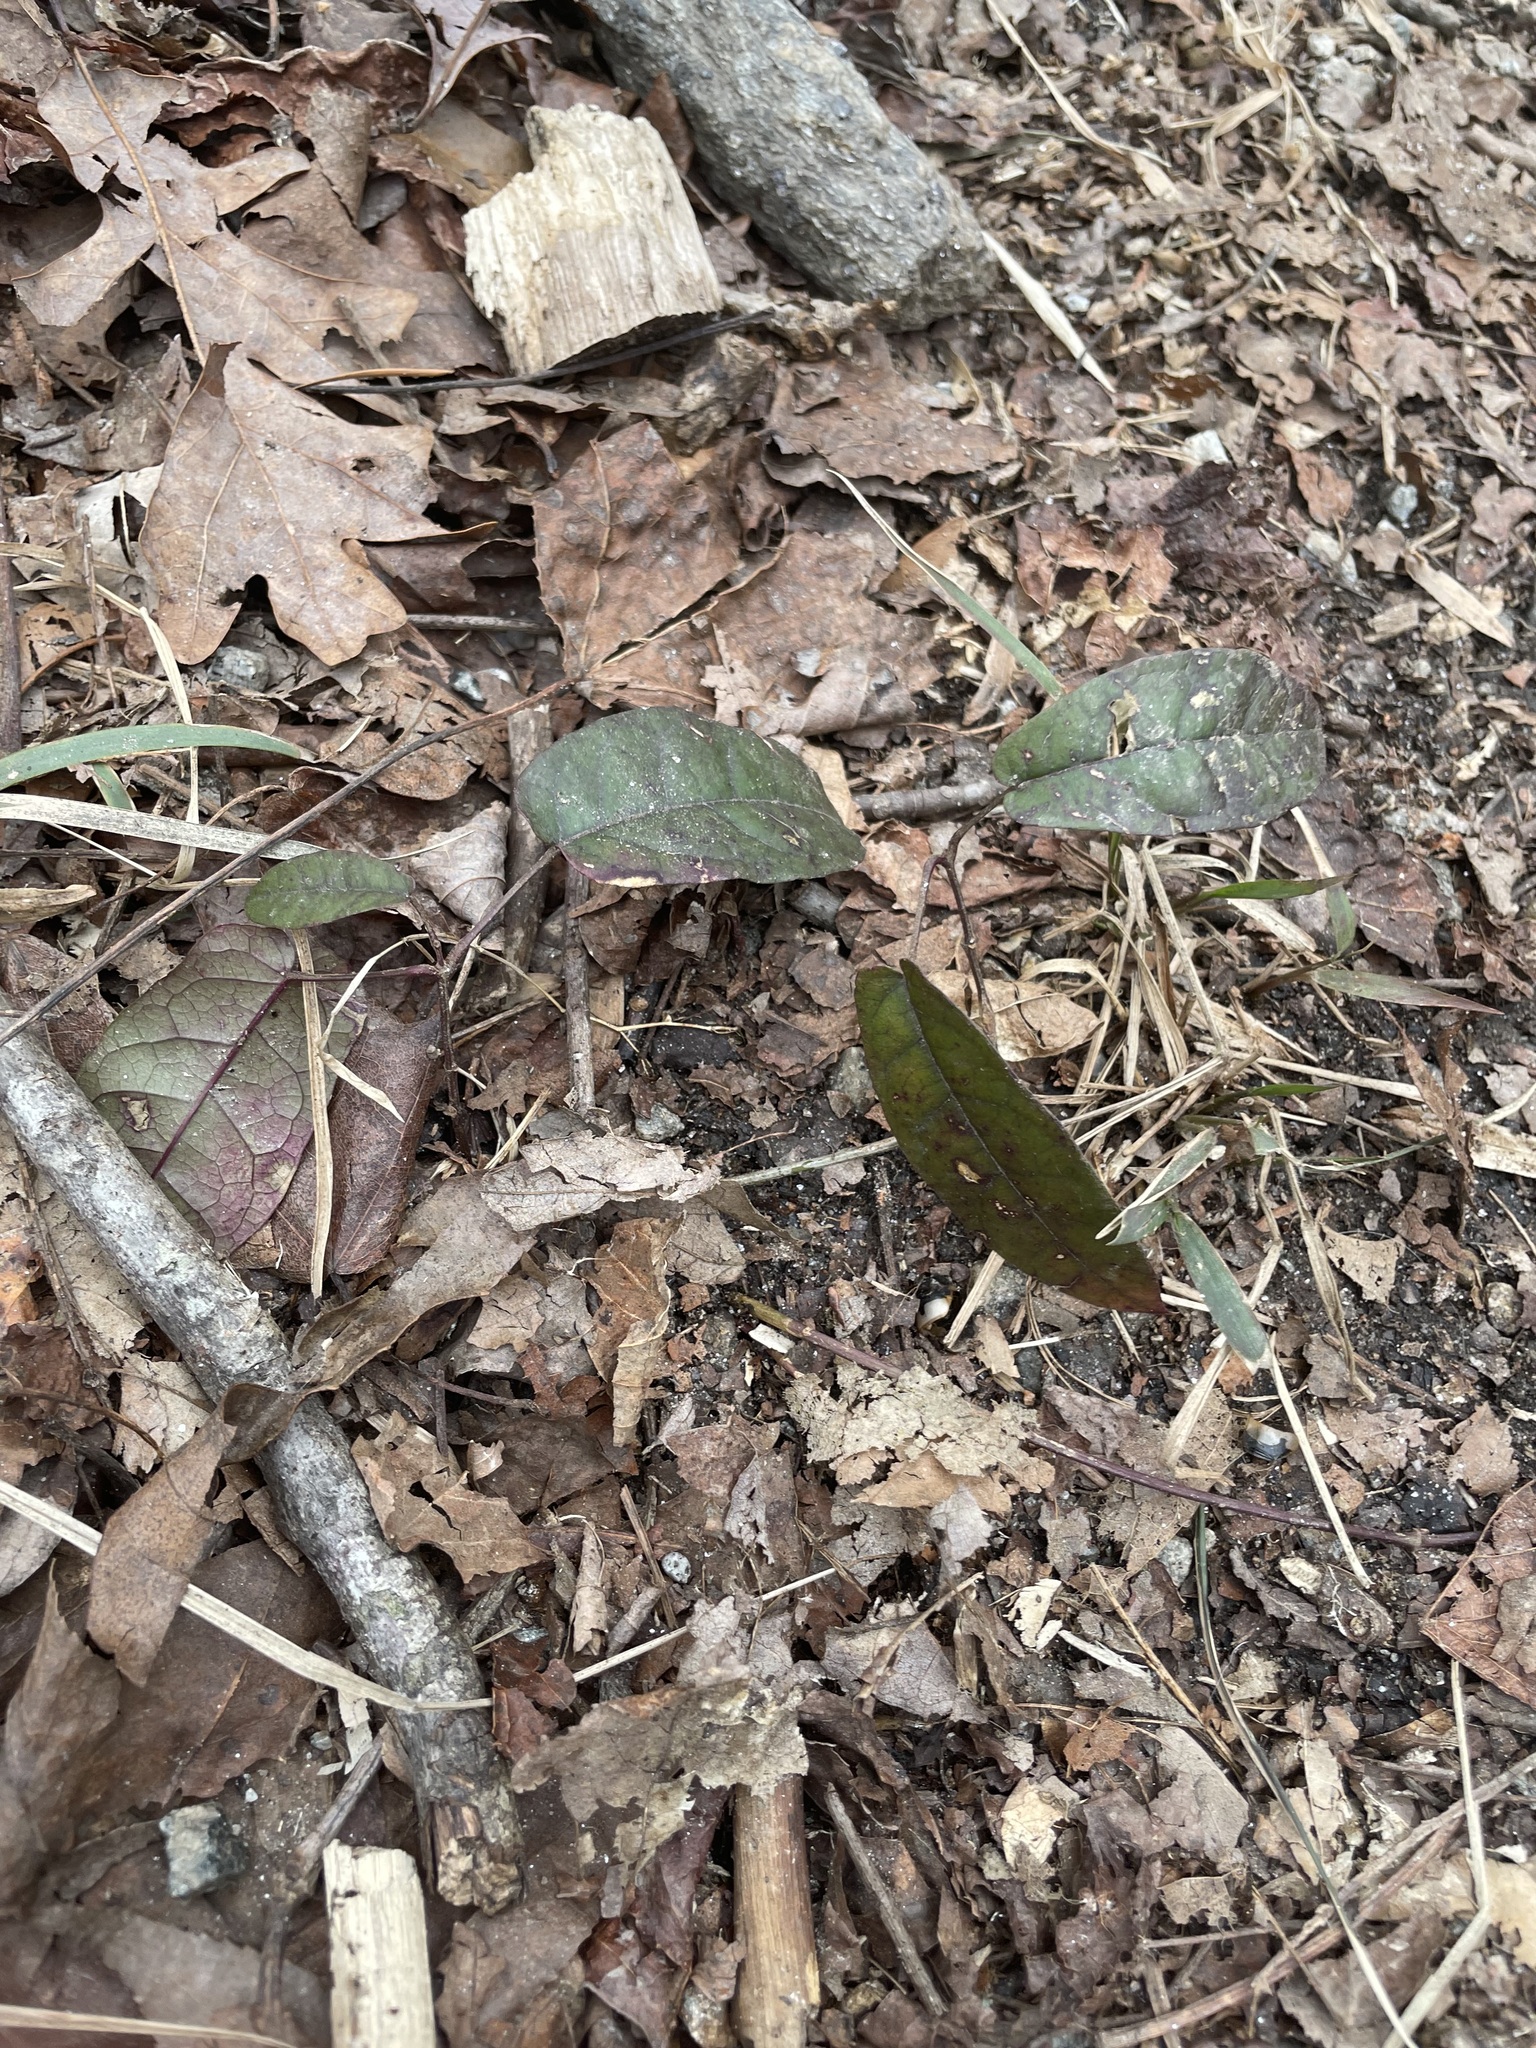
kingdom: Plantae
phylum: Tracheophyta
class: Magnoliopsida
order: Lamiales
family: Bignoniaceae
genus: Bignonia
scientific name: Bignonia capreolata
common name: Crossvine
